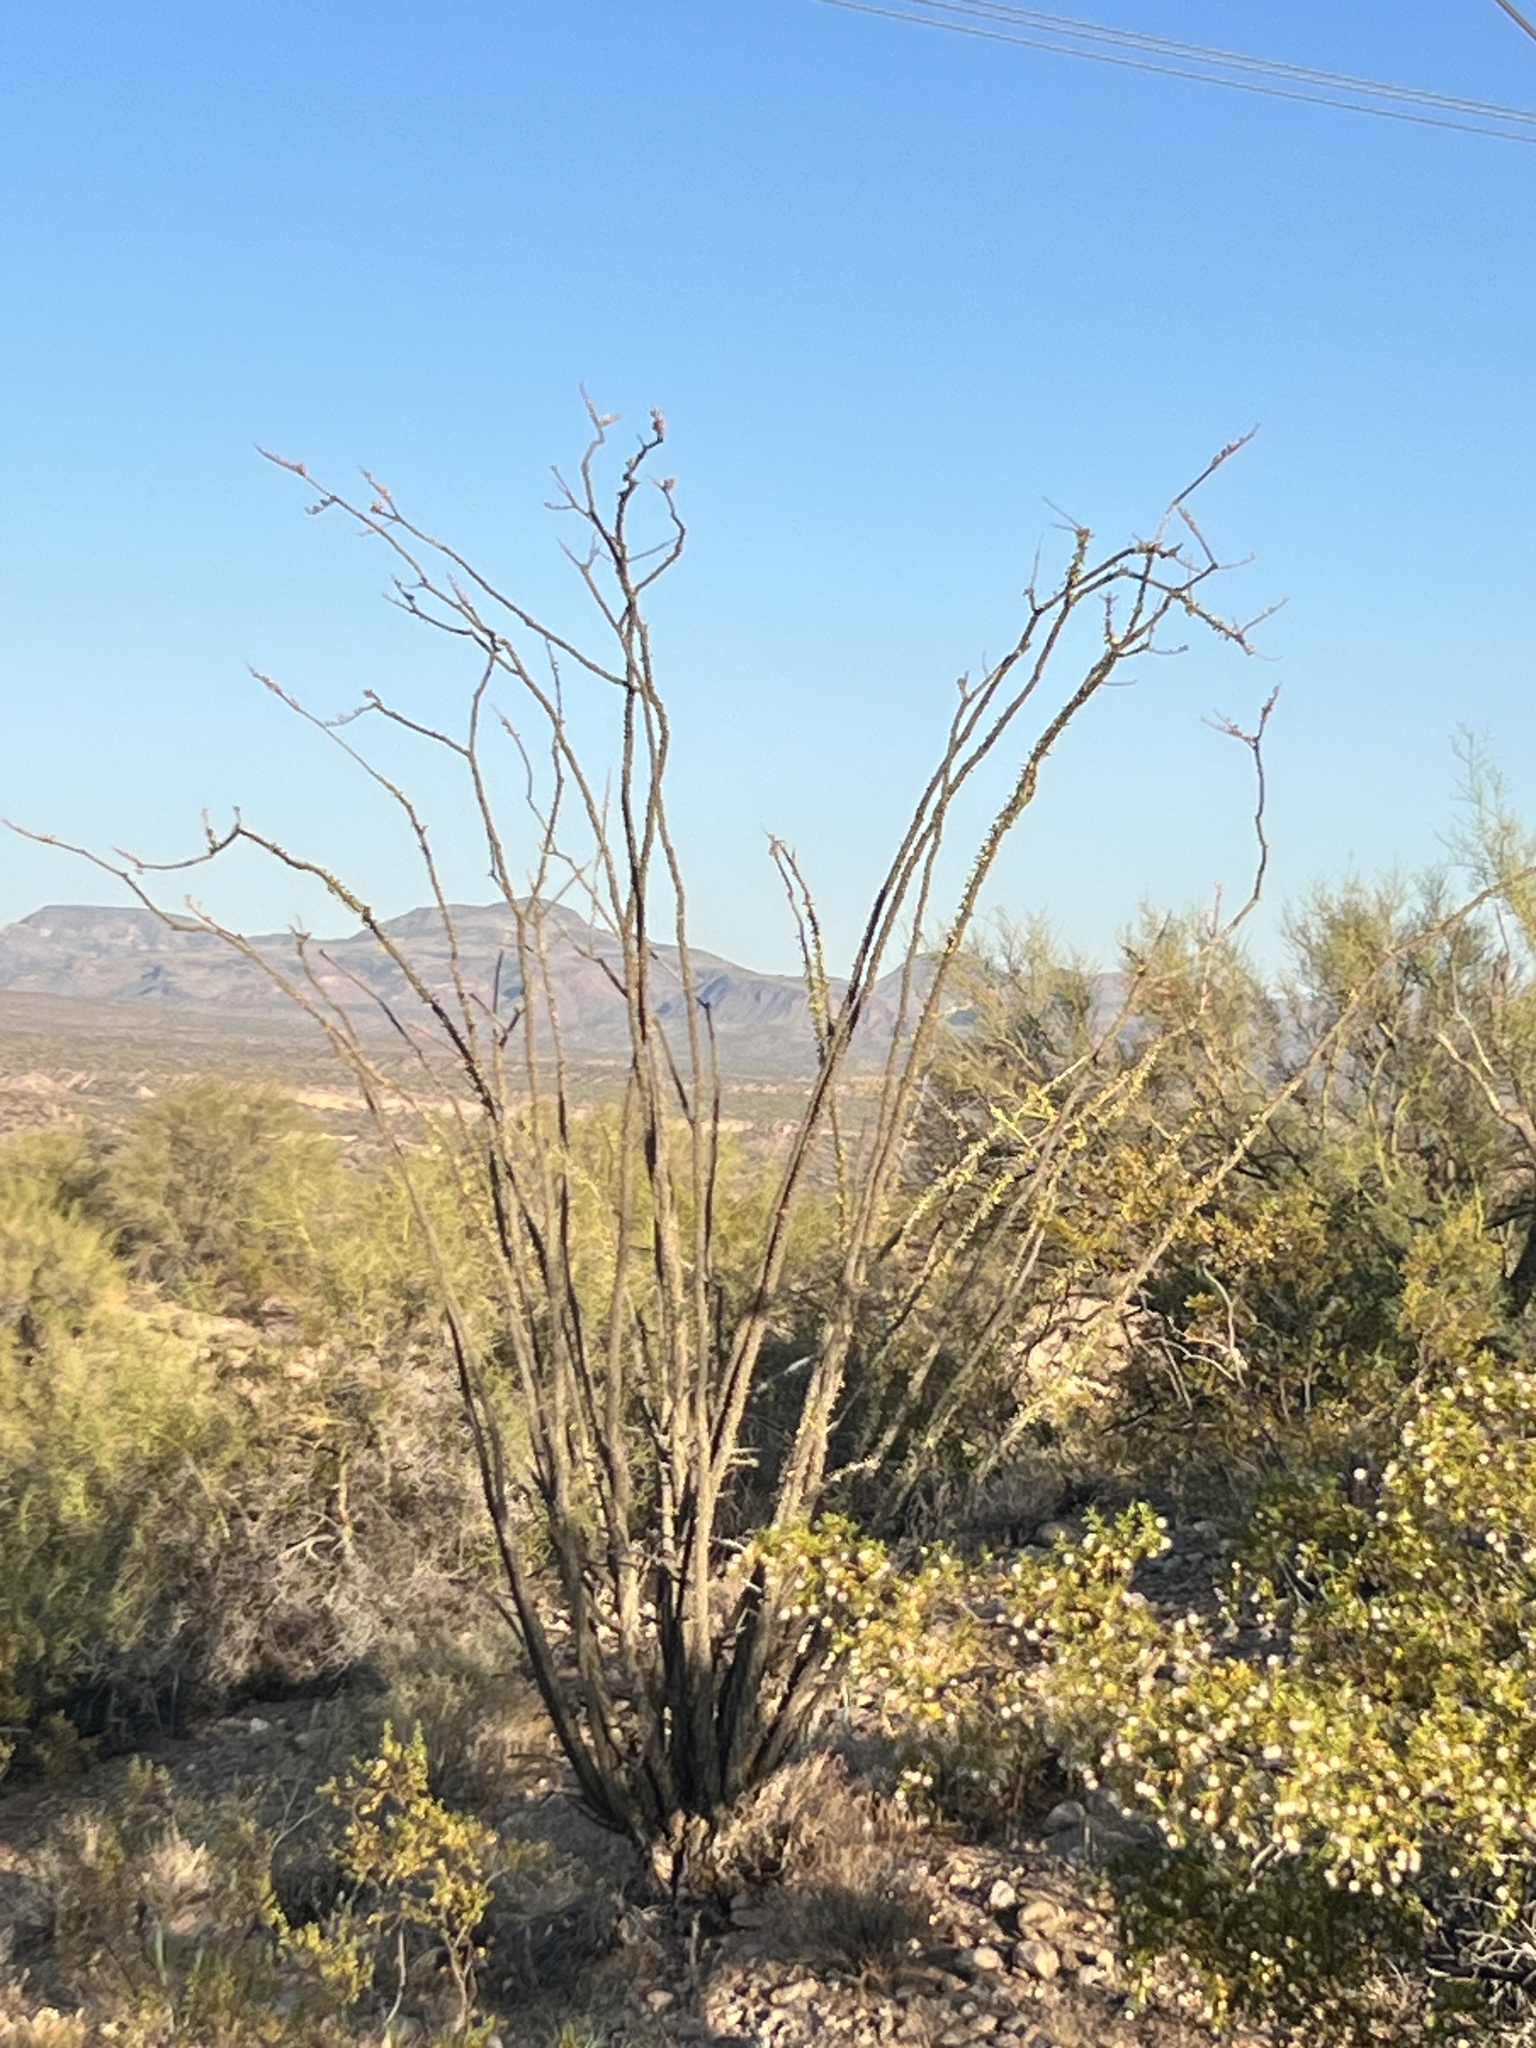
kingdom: Plantae
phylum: Tracheophyta
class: Magnoliopsida
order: Ericales
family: Fouquieriaceae
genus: Fouquieria
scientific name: Fouquieria splendens
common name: Vine-cactus
